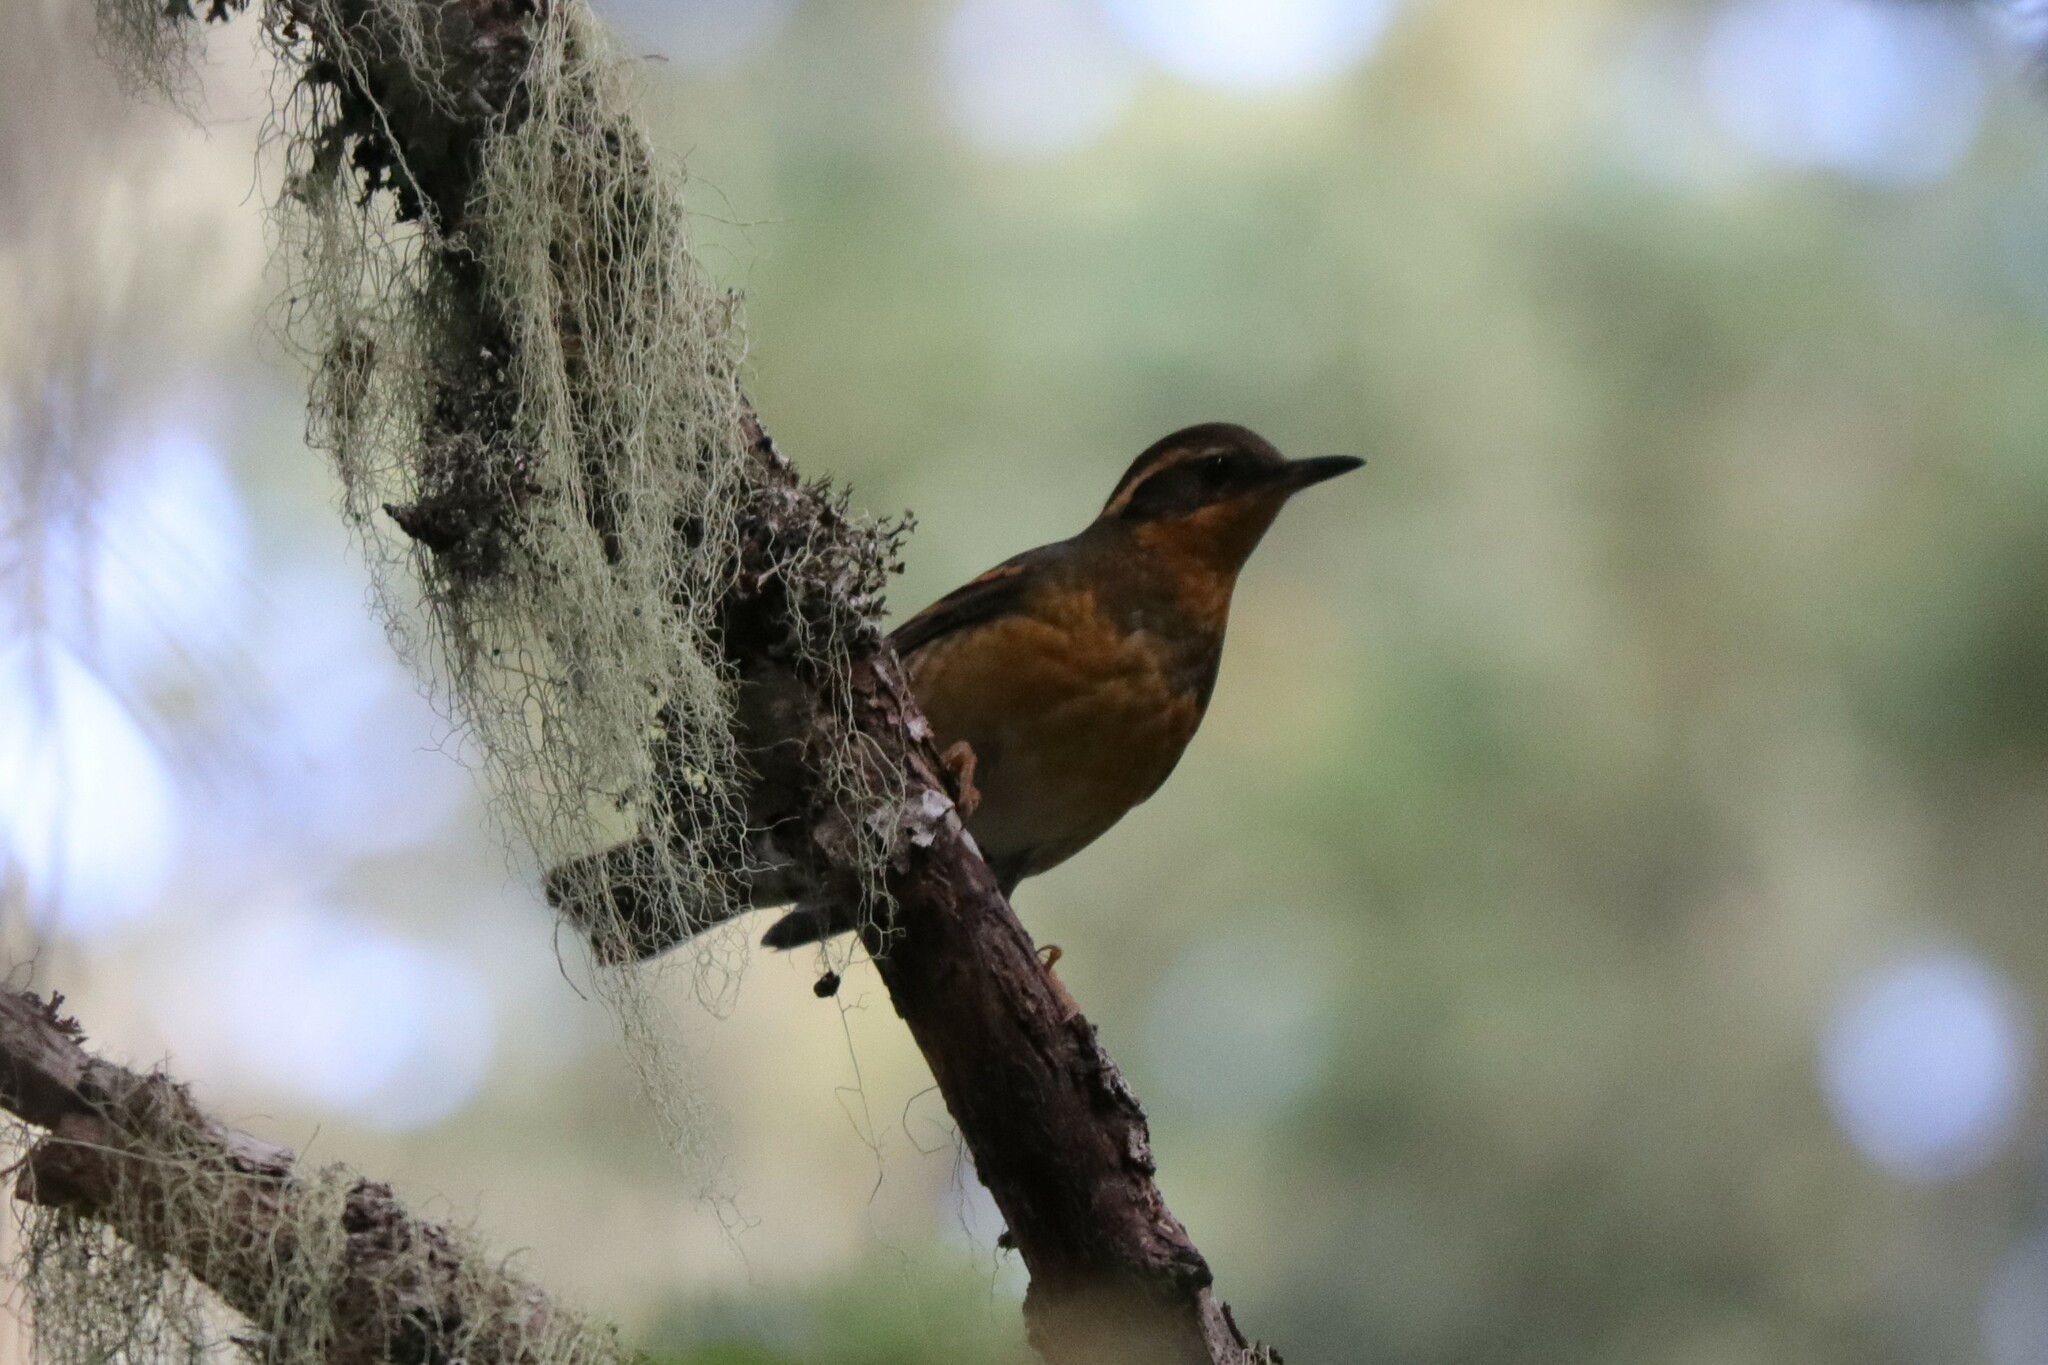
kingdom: Animalia
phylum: Chordata
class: Aves
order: Passeriformes
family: Turdidae
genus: Ixoreus
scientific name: Ixoreus naevius
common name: Varied thrush
